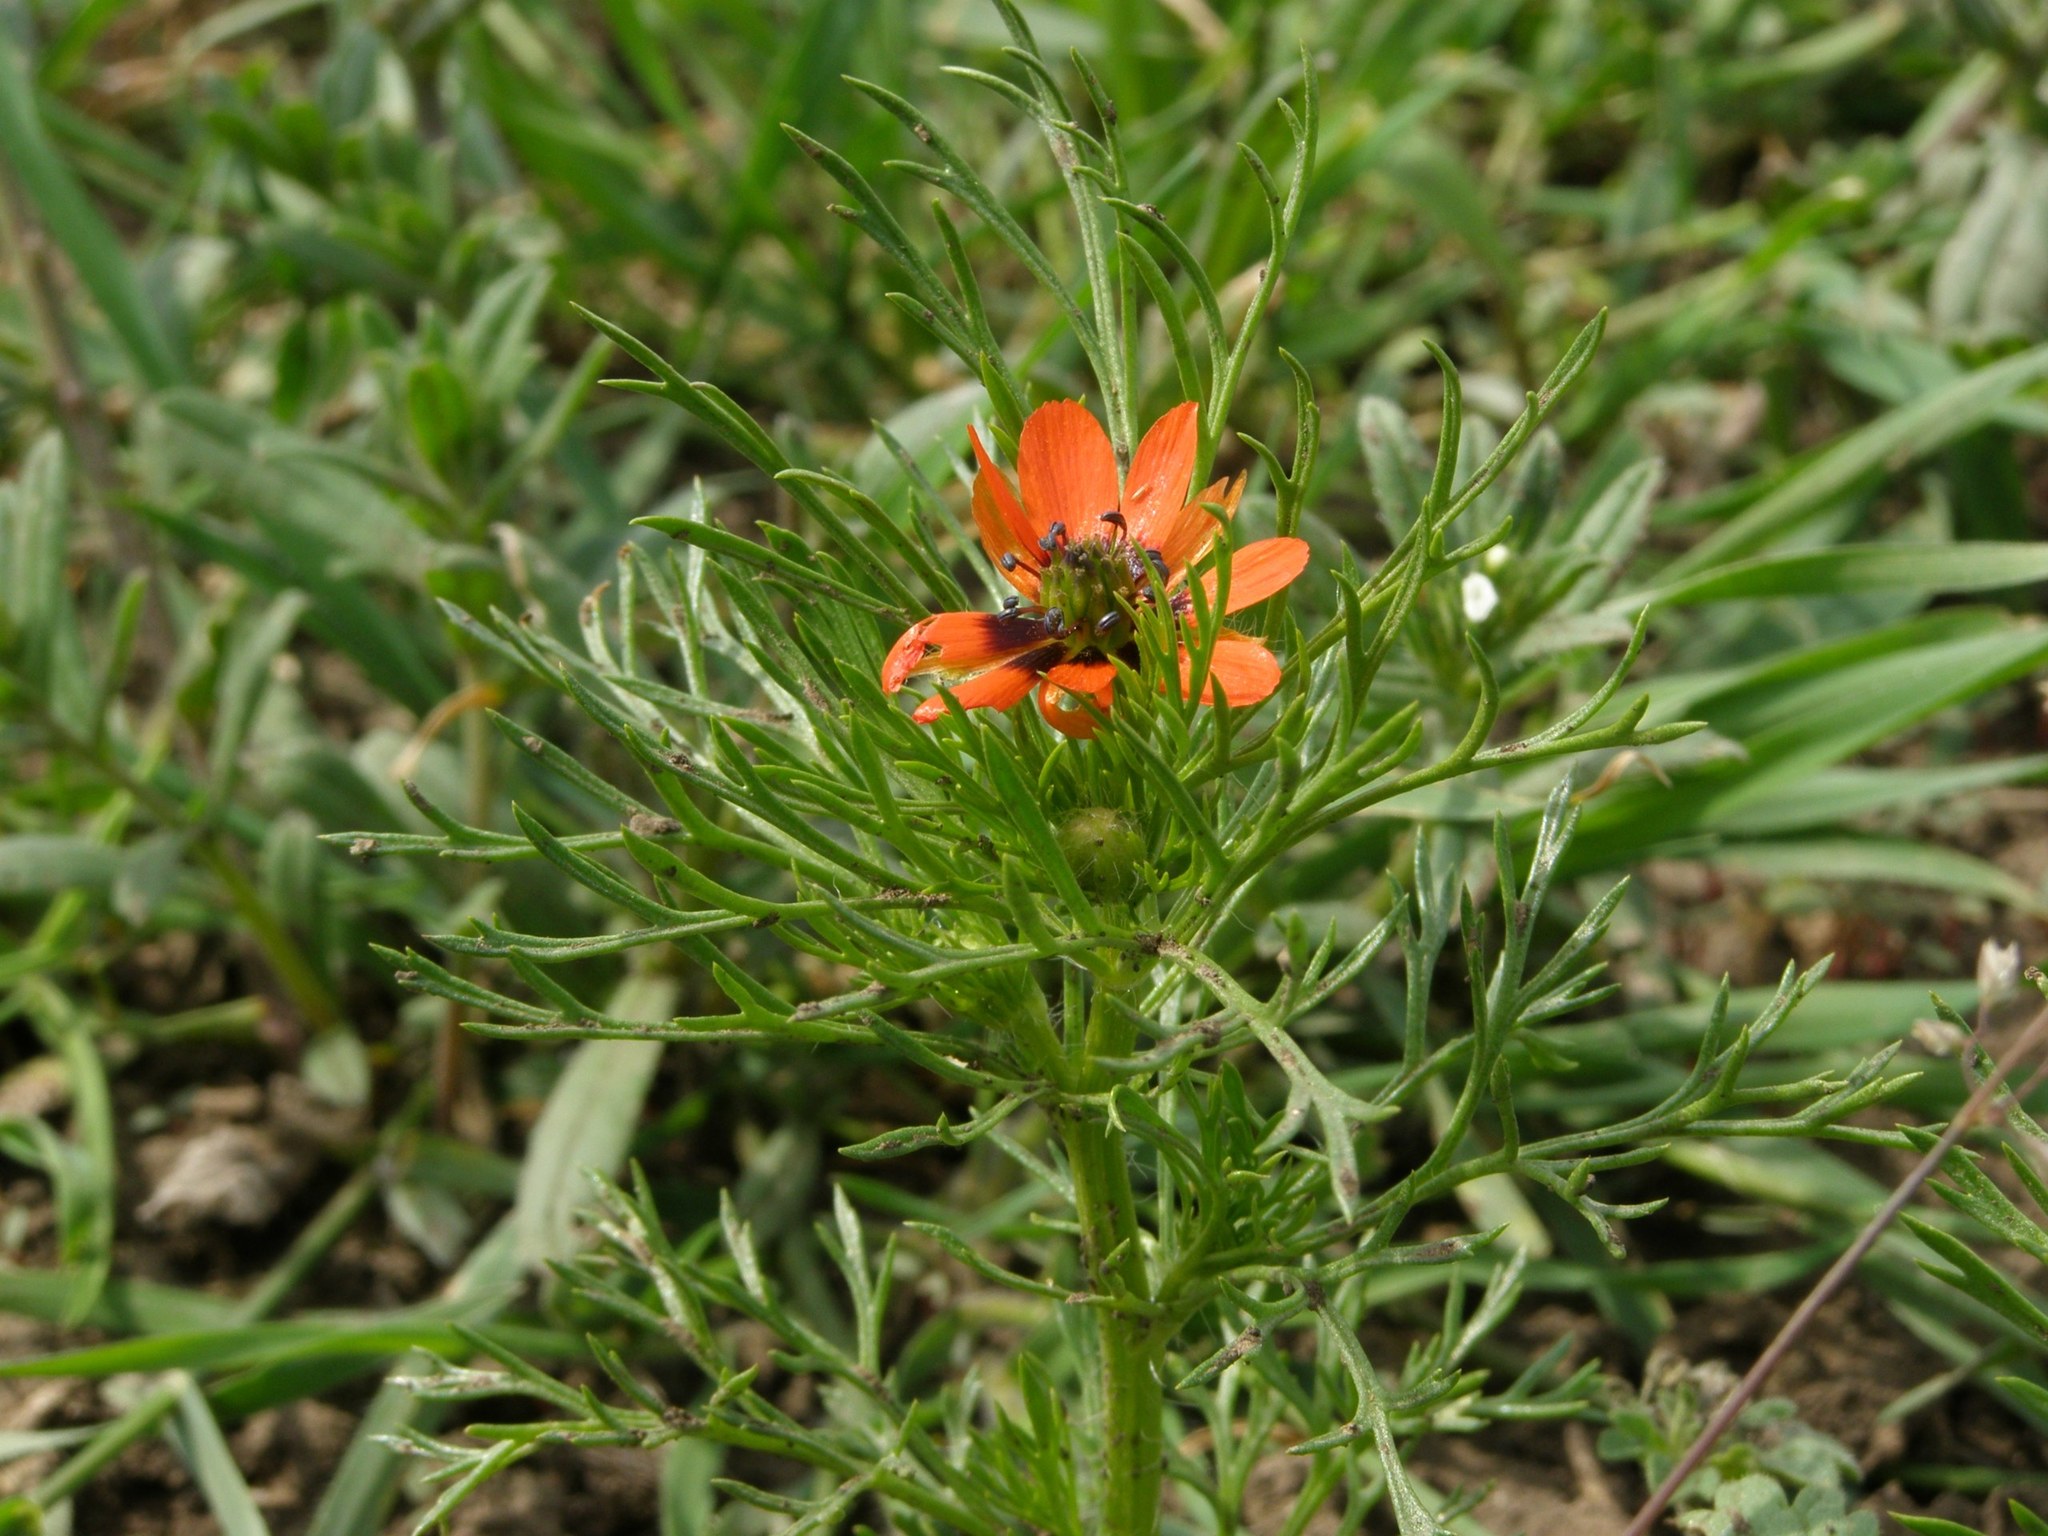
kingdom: Plantae
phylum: Tracheophyta
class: Magnoliopsida
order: Ranunculales
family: Ranunculaceae
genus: Adonis
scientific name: Adonis aestivalis
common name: Summer pheasant's-eye
